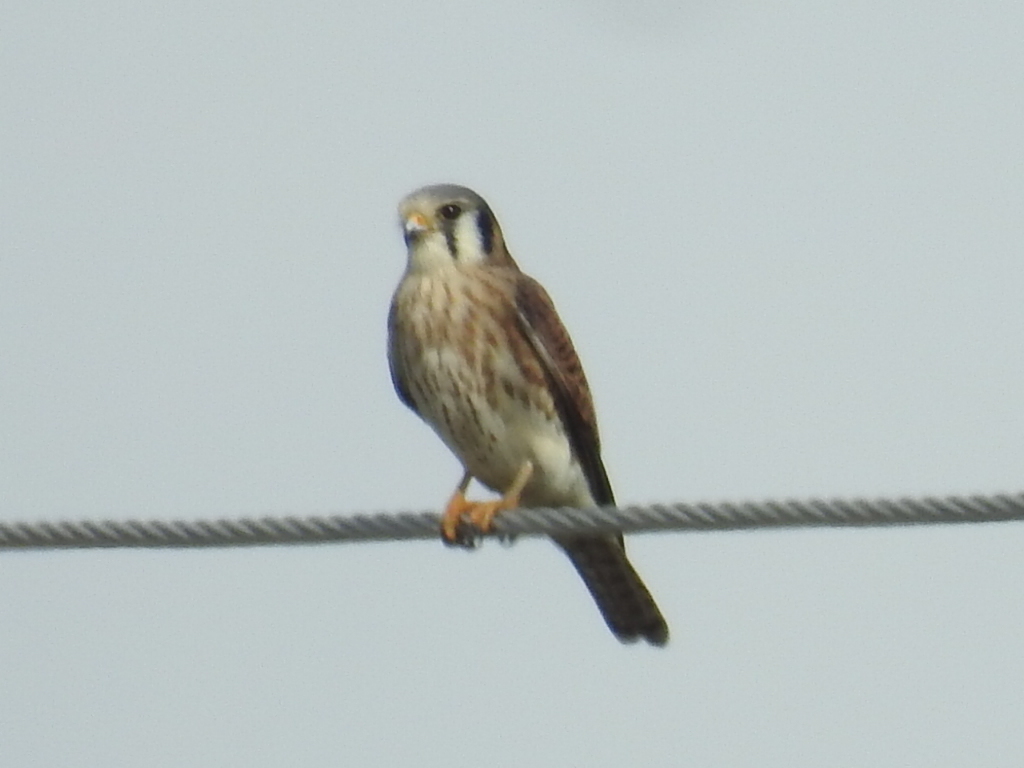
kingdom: Animalia
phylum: Chordata
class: Aves
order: Falconiformes
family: Falconidae
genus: Falco
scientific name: Falco sparverius
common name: American kestrel
